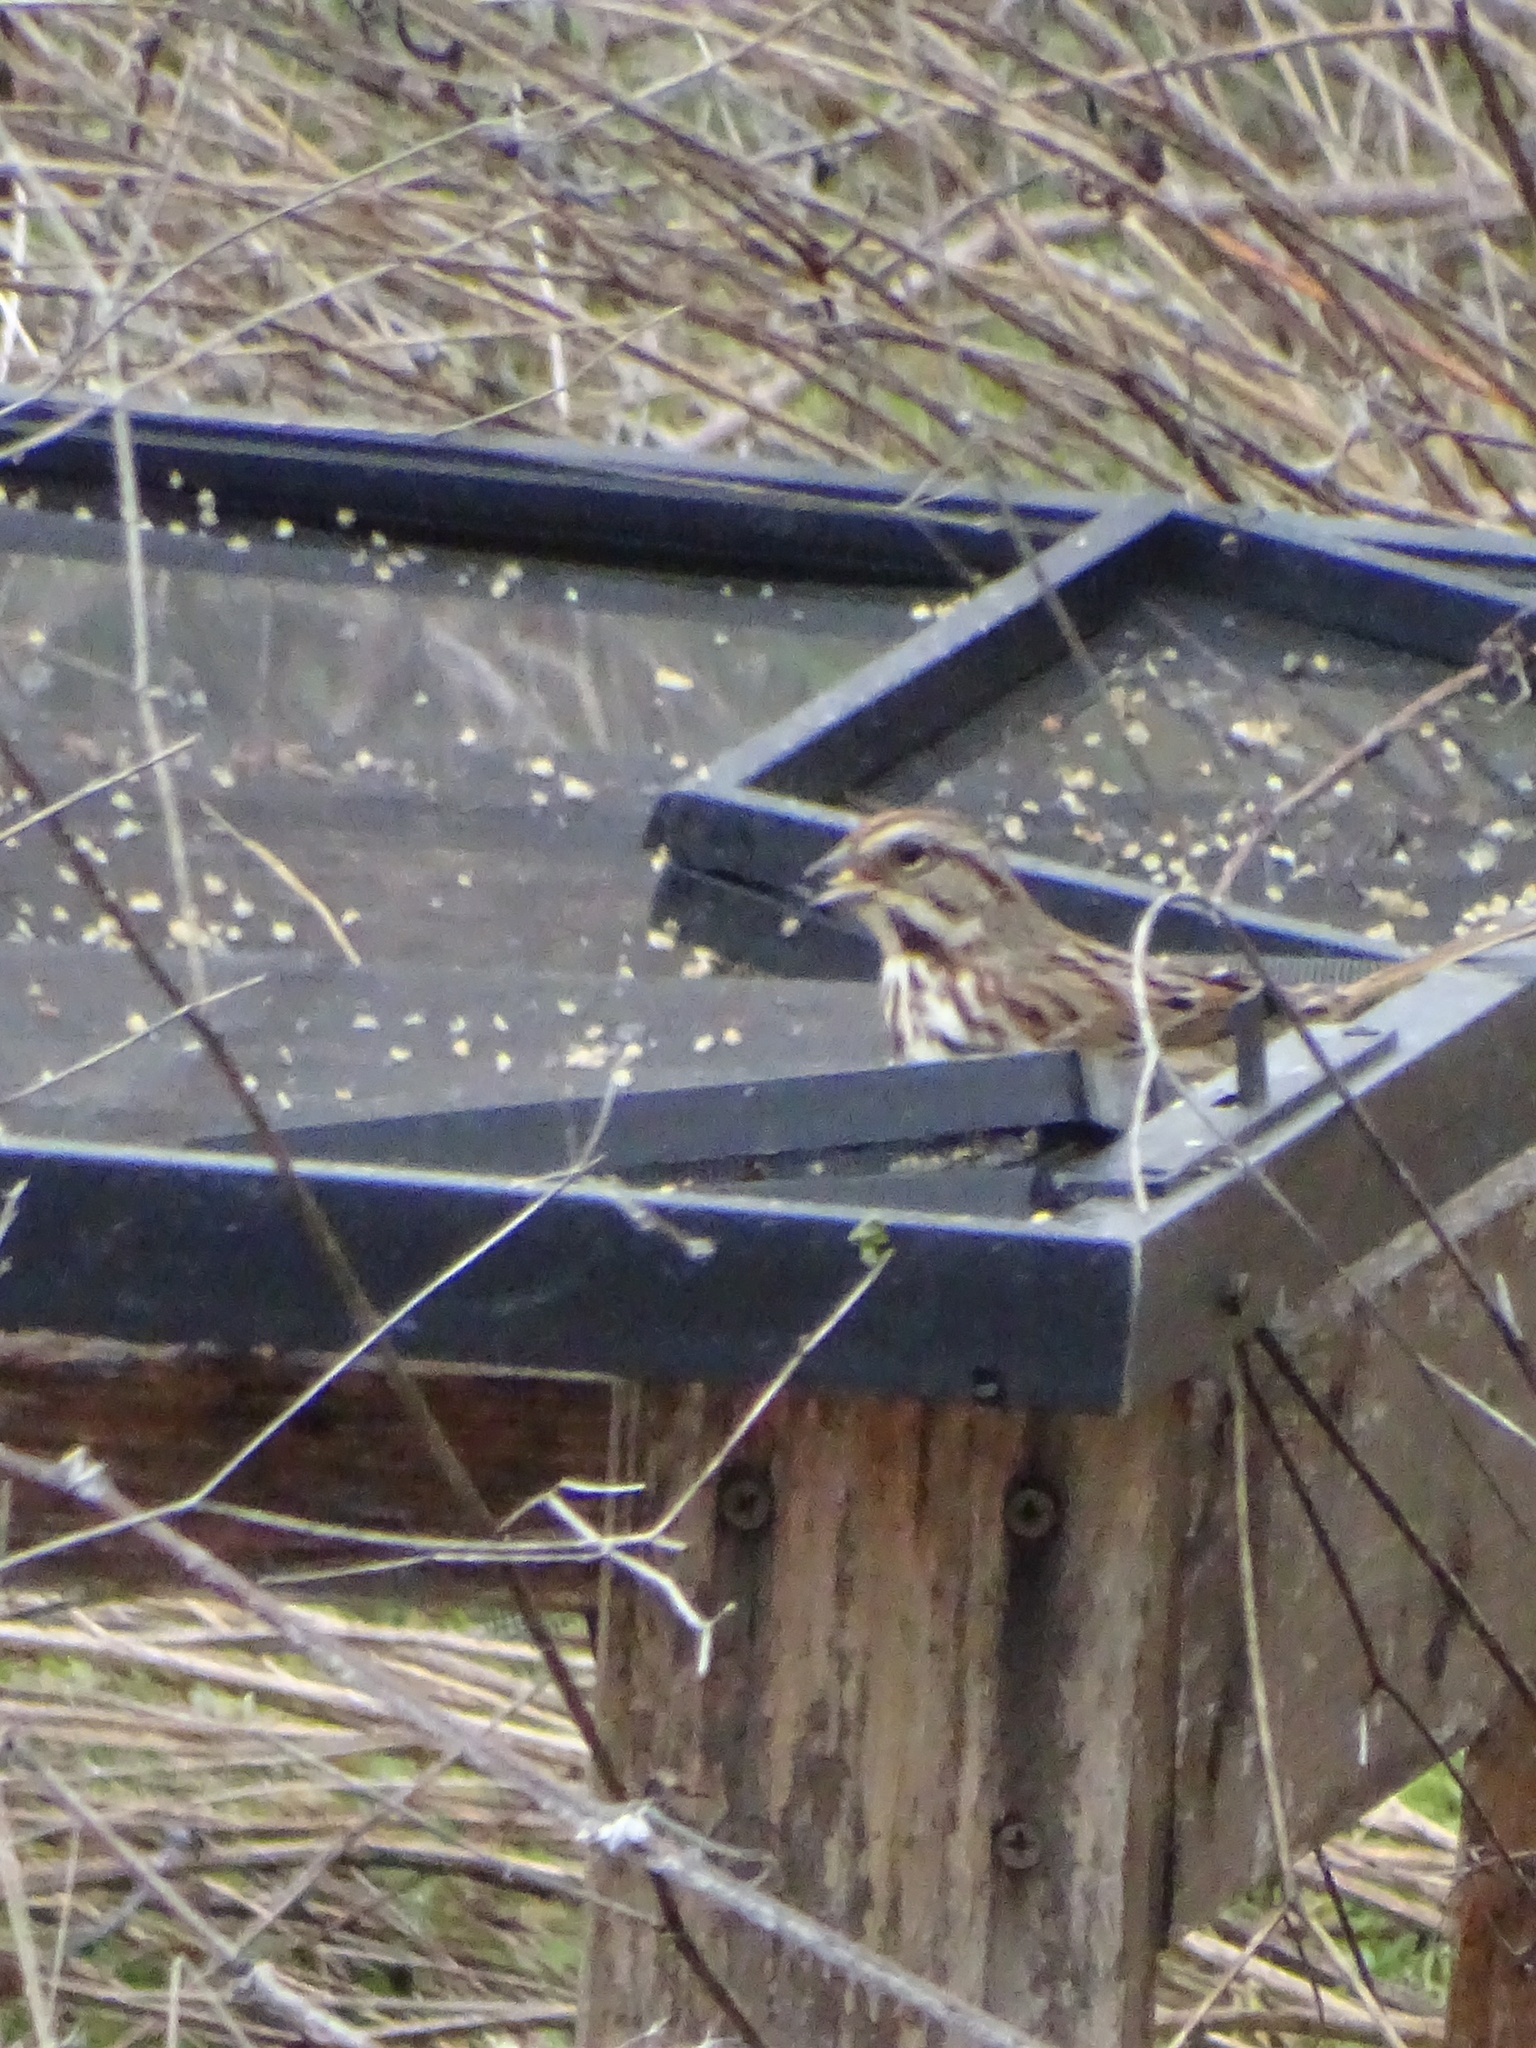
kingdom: Animalia
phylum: Chordata
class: Aves
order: Passeriformes
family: Passerellidae
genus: Melospiza
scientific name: Melospiza melodia
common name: Song sparrow
